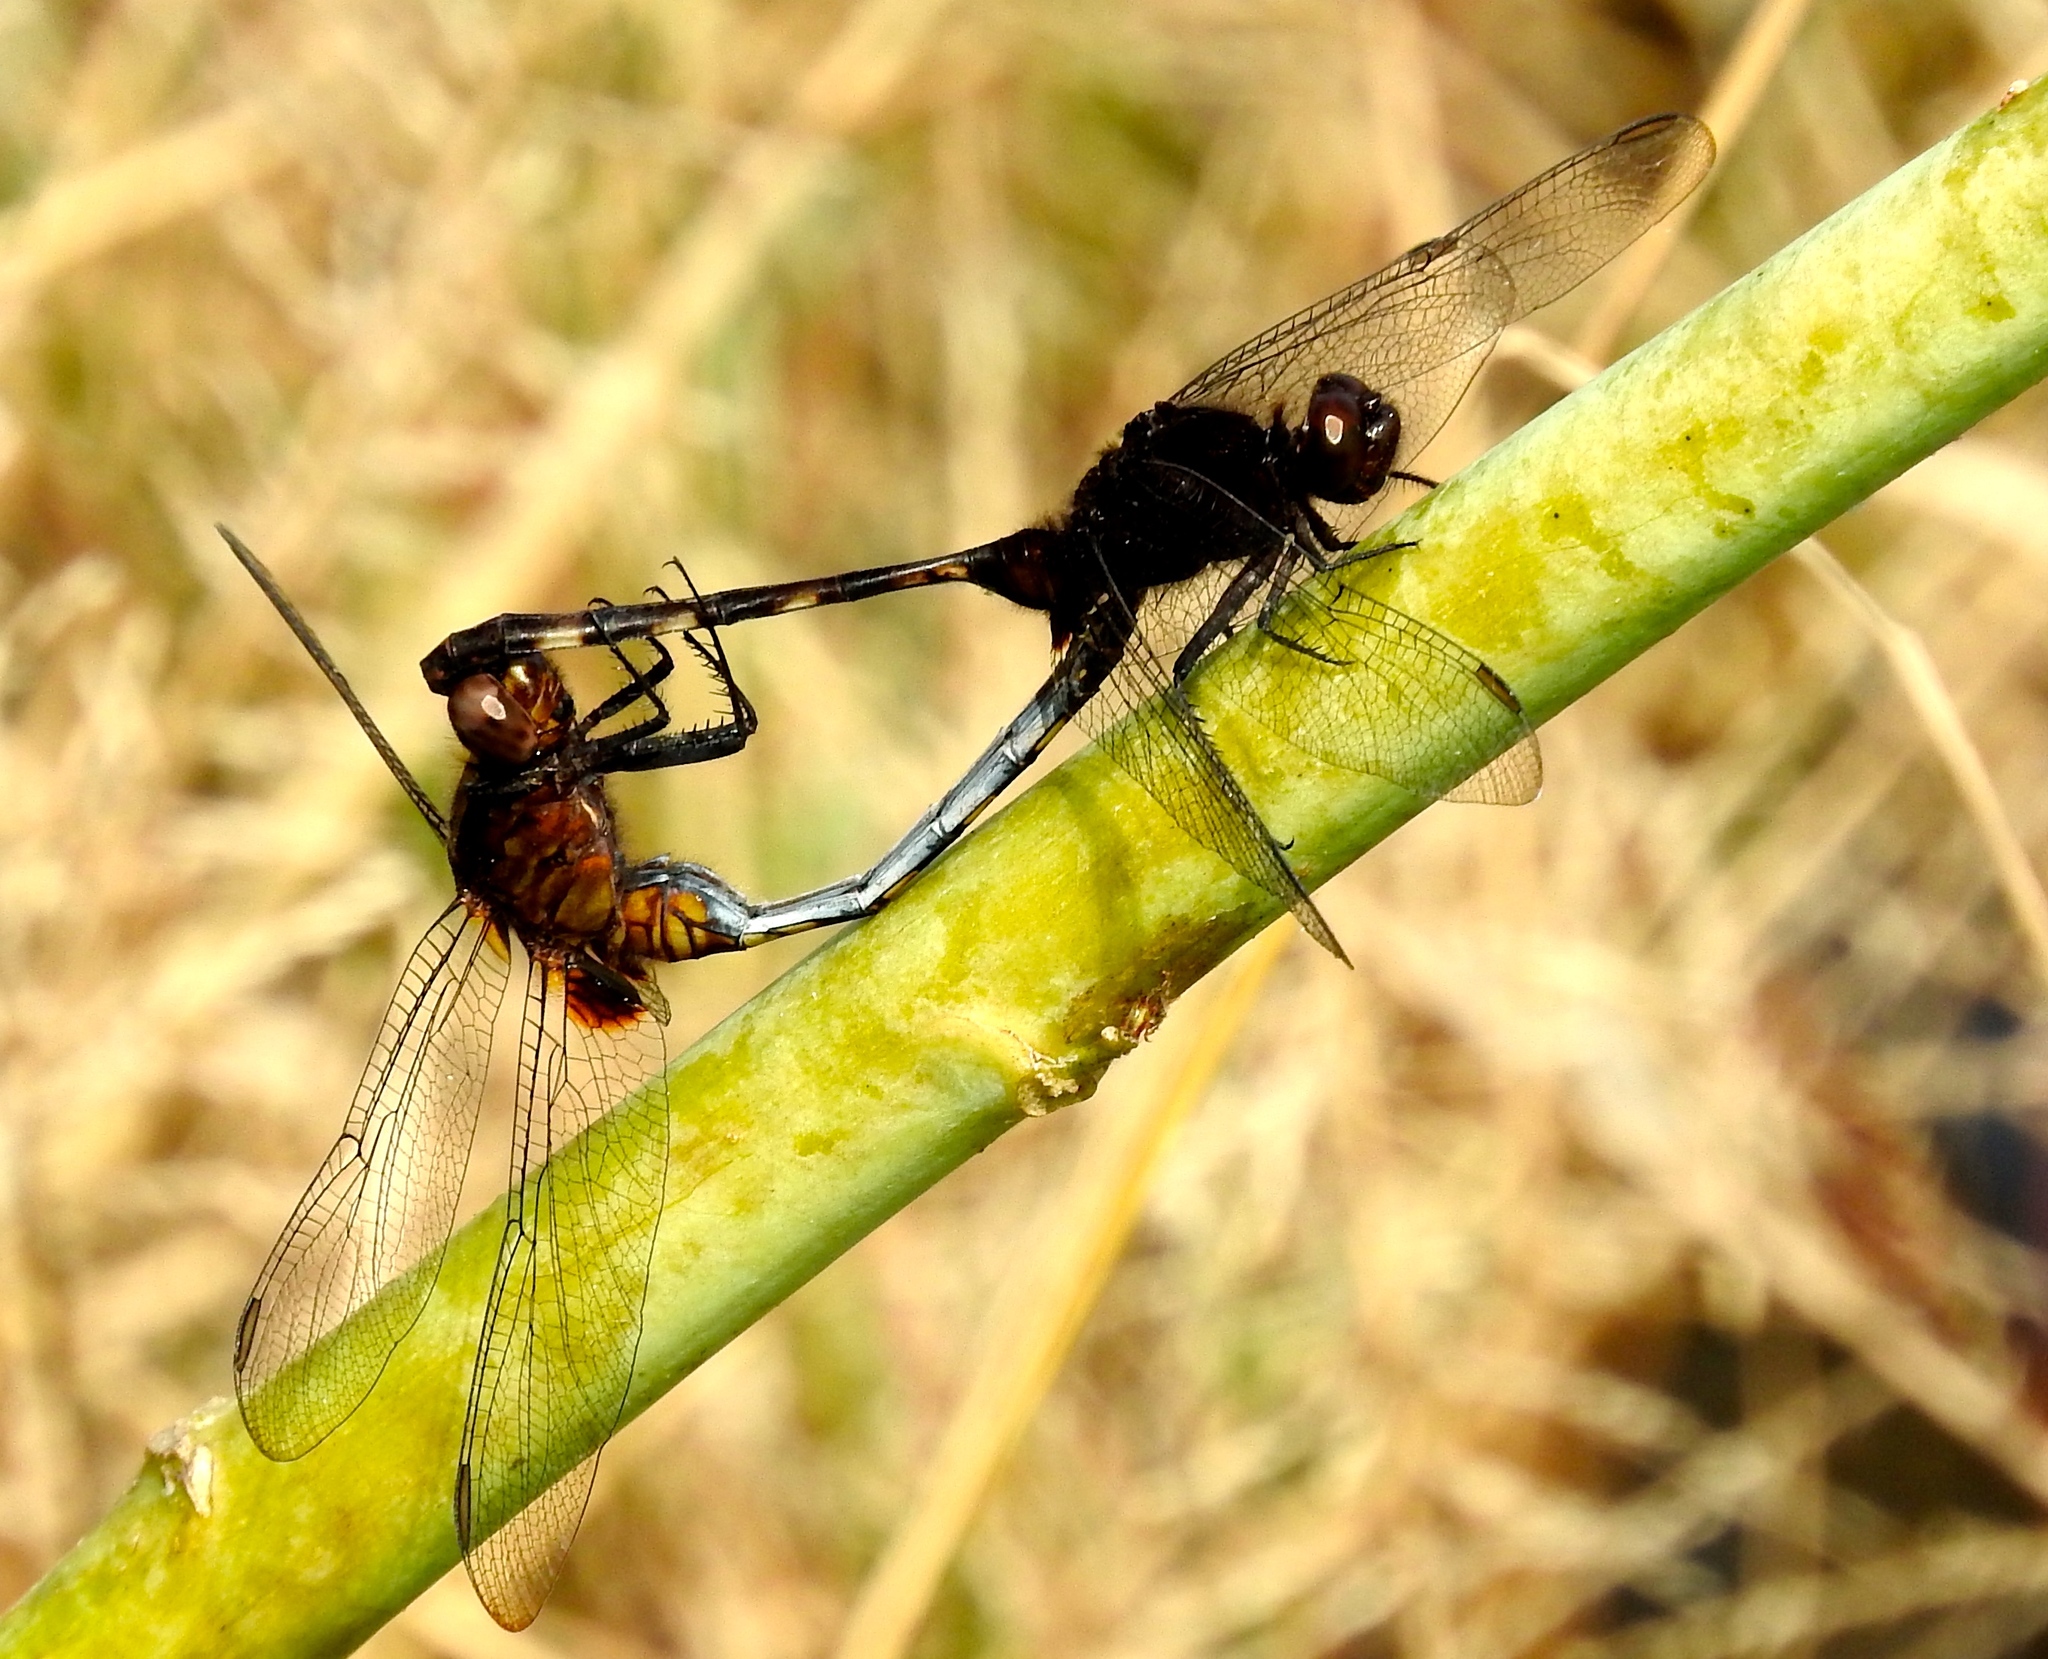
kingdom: Animalia
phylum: Arthropoda
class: Insecta
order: Odonata
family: Libellulidae
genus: Erythemis
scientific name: Erythemis plebeja
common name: Pin-tailed pondhawk
